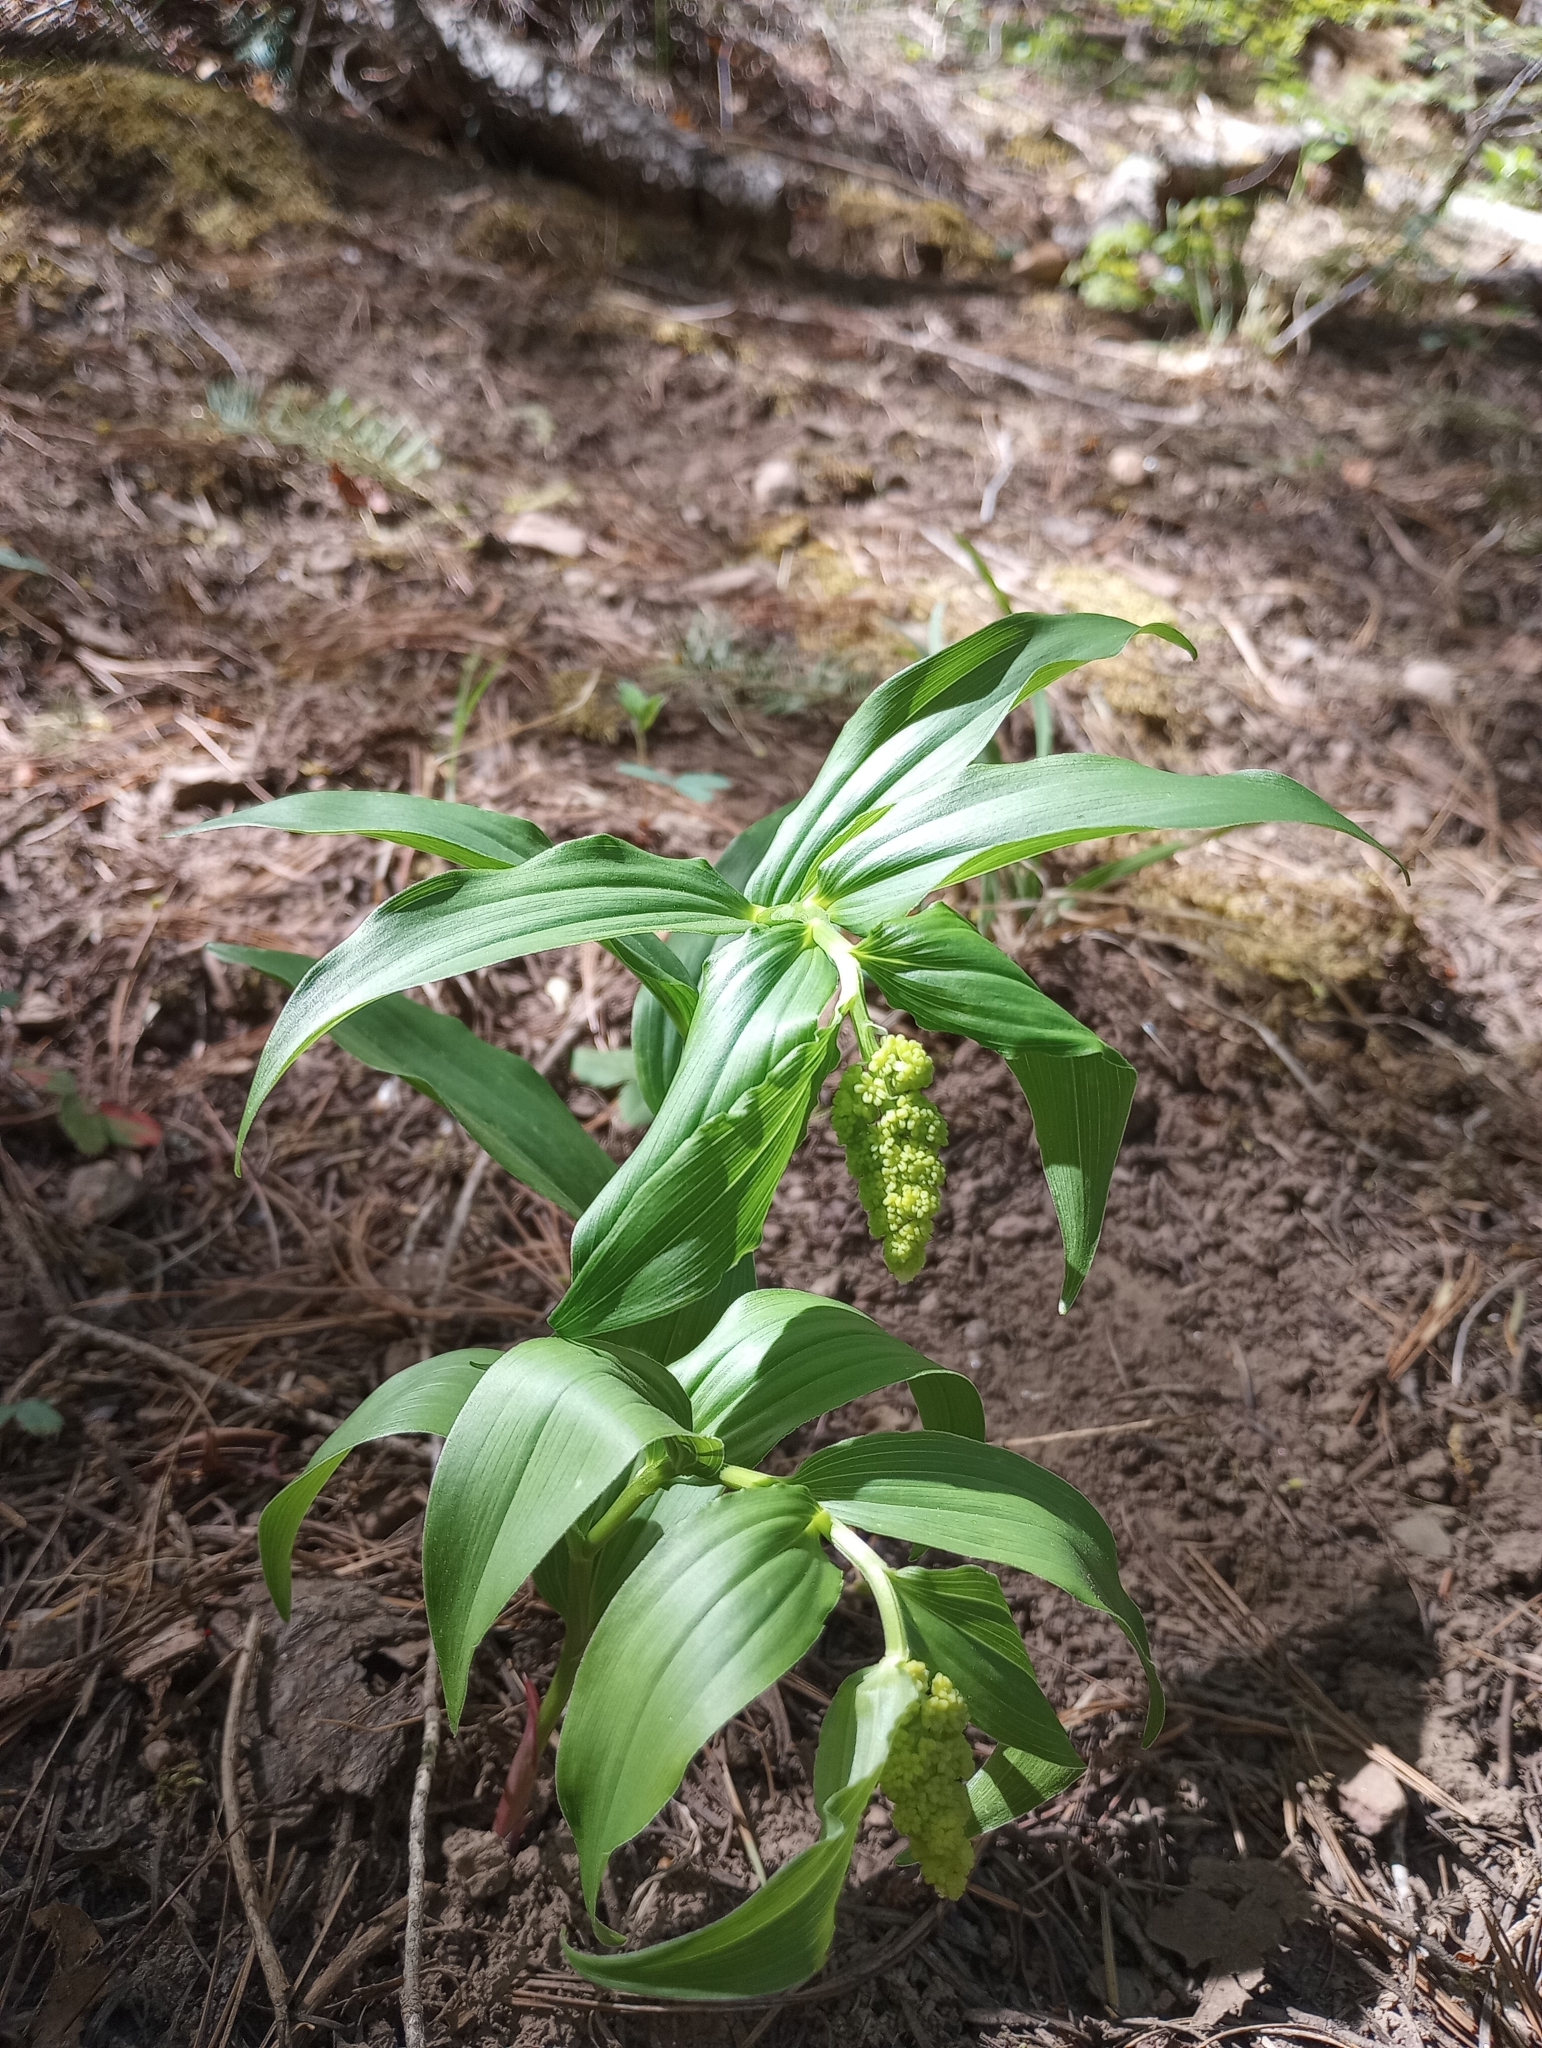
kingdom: Plantae
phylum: Tracheophyta
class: Liliopsida
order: Asparagales
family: Asparagaceae
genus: Maianthemum
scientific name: Maianthemum racemosum
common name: False spikenard
